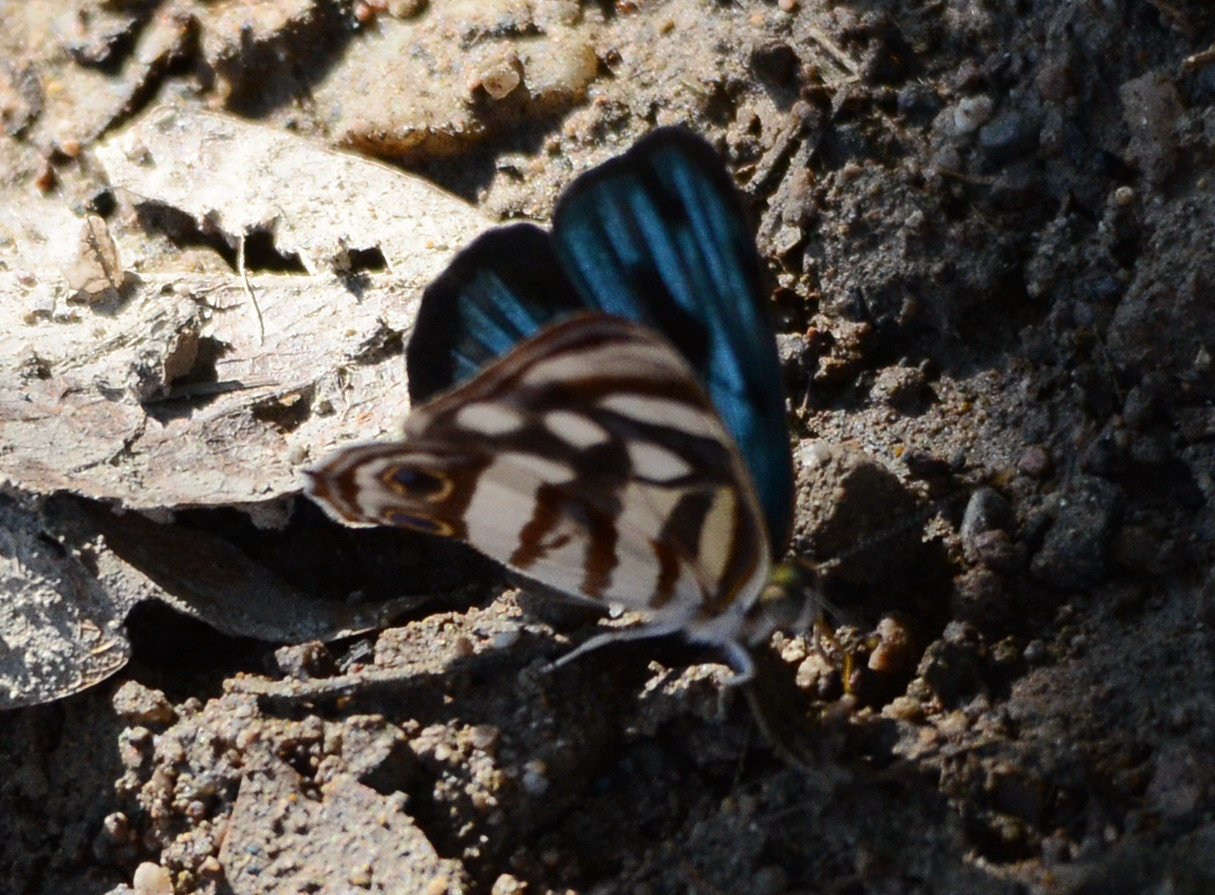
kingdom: Animalia
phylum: Arthropoda
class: Insecta
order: Lepidoptera
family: Nymphalidae
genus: Dynamine
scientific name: Dynamine mylitta
